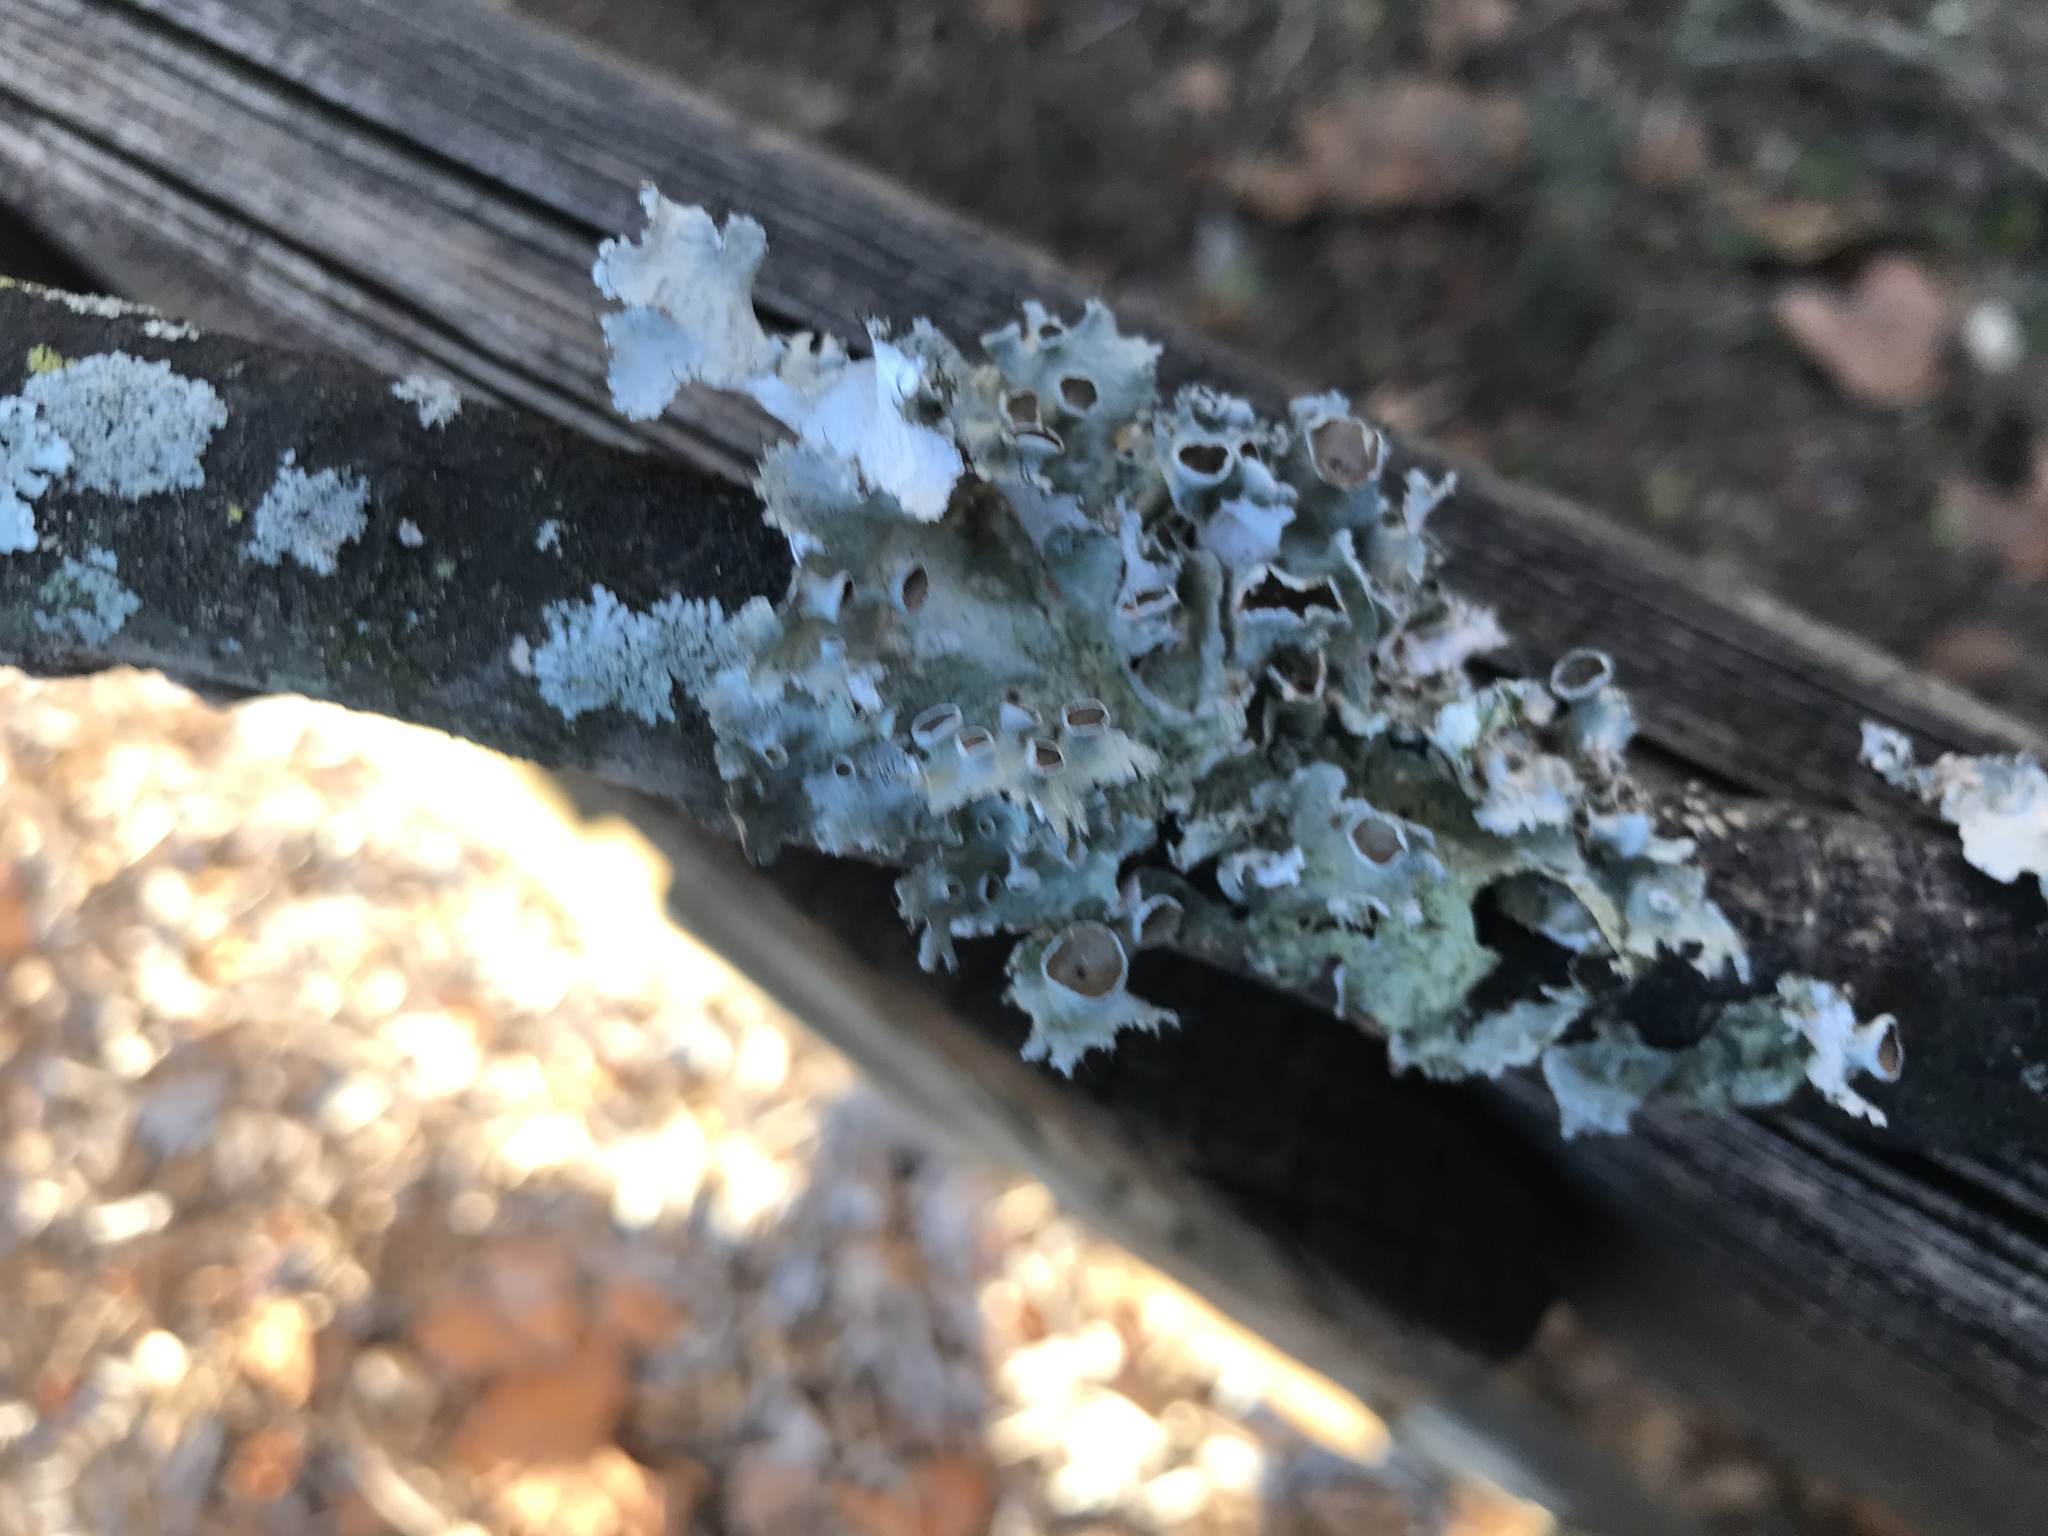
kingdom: Fungi
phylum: Ascomycota
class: Lecanoromycetes
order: Lecanorales
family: Parmeliaceae
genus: Parmotrema
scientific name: Parmotrema perforatum
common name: Perforated ruffle lichen
